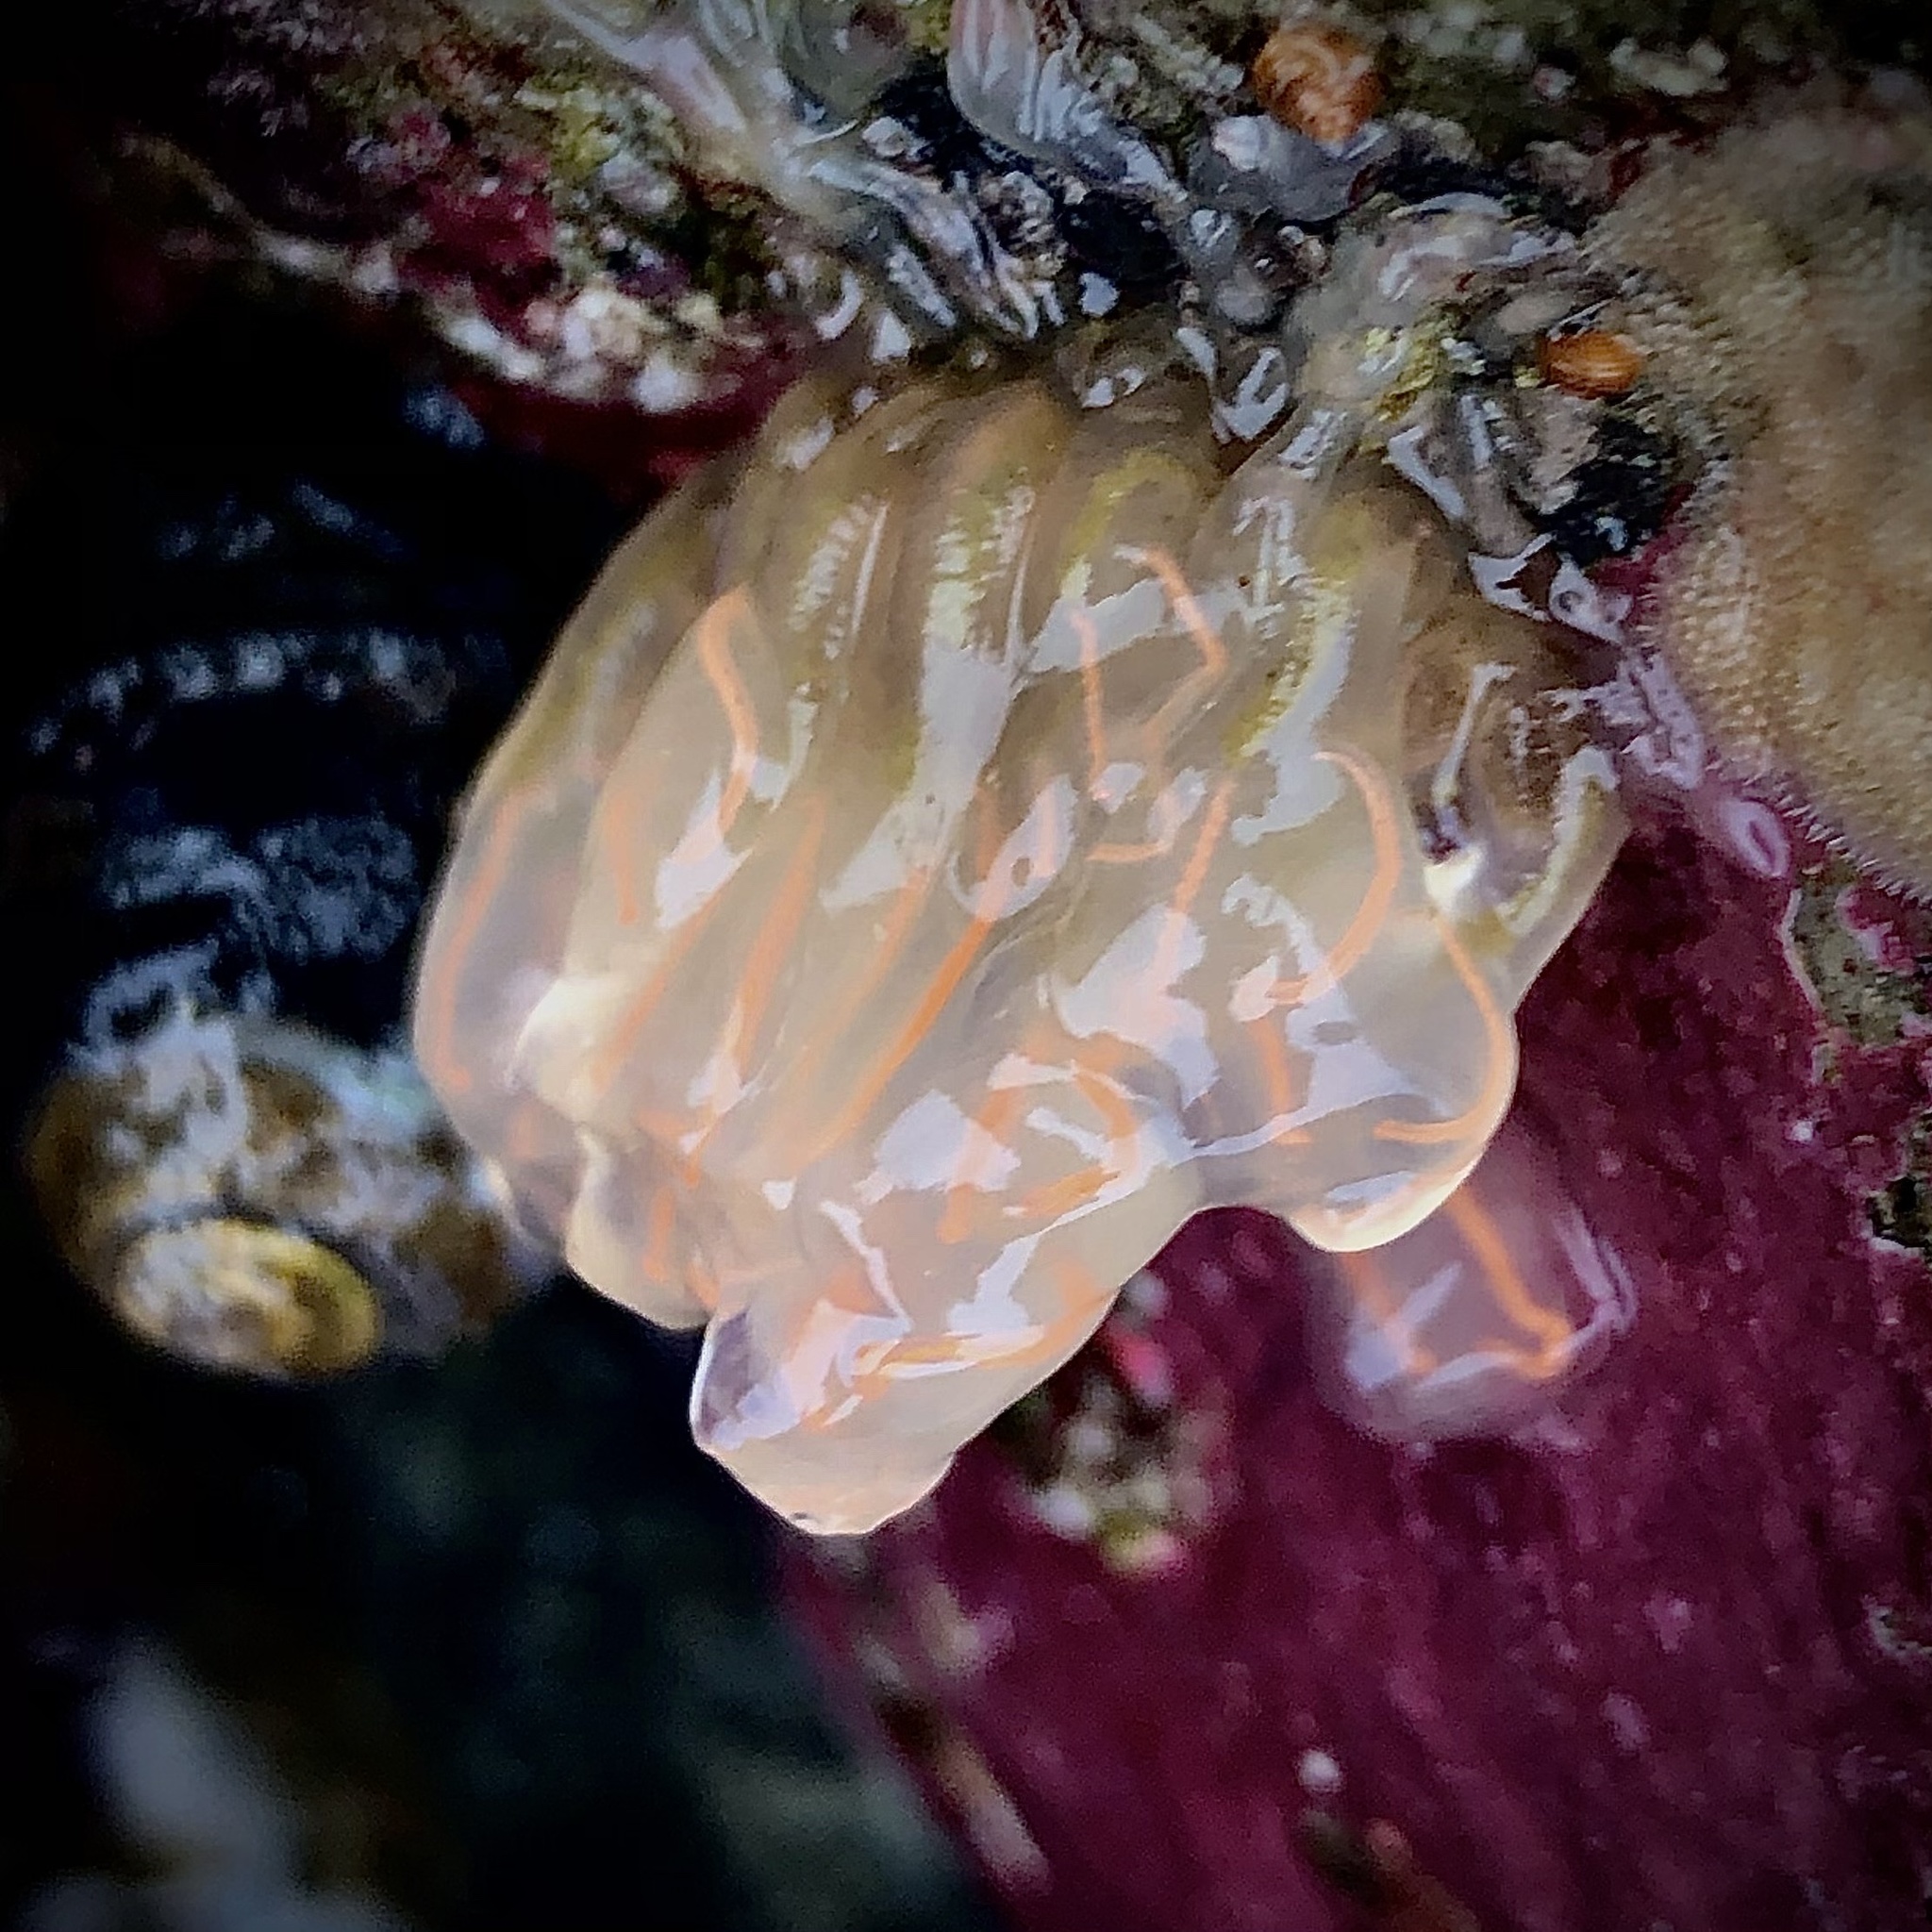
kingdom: Animalia
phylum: Chordata
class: Ascidiacea
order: Aplousobranchia
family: Clavelinidae
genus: Clavelina
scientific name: Clavelina huntsmani
